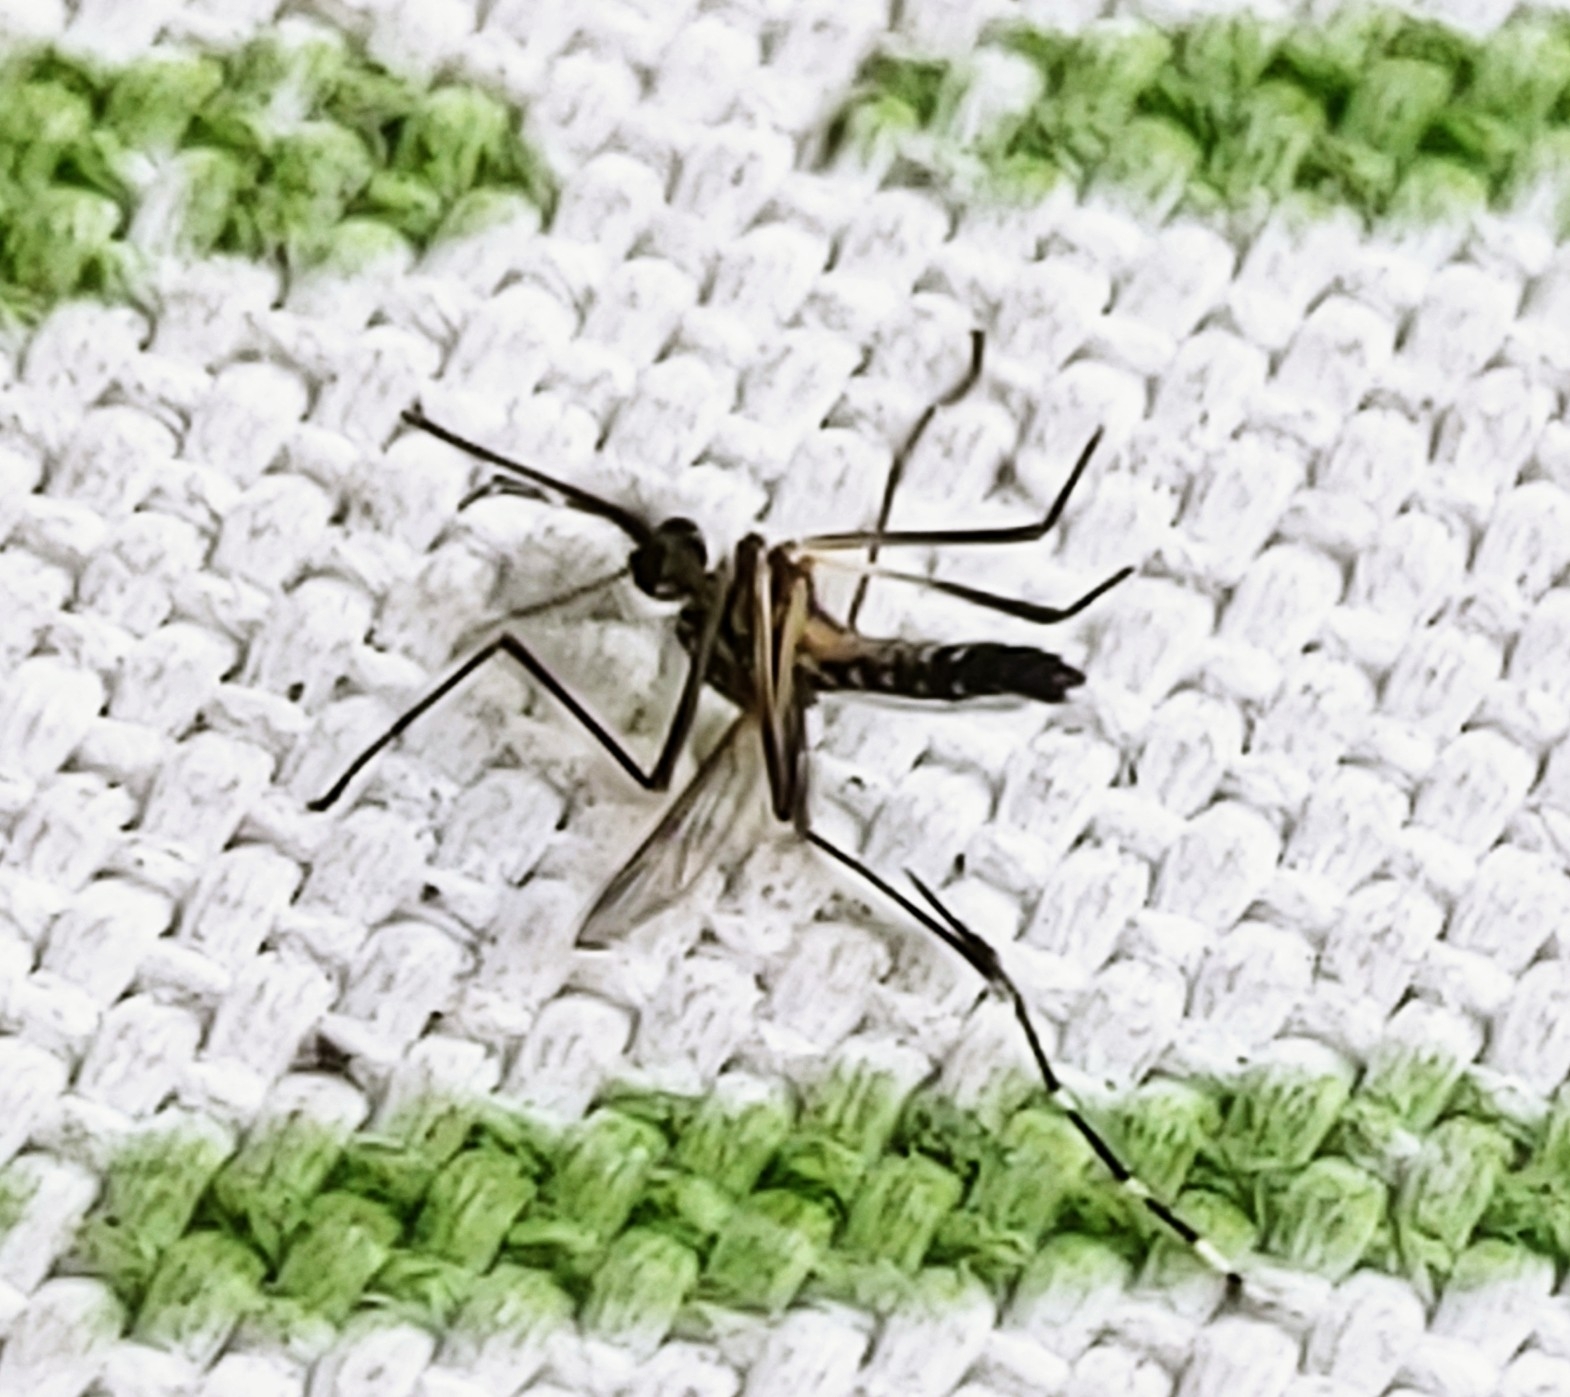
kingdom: Animalia
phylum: Arthropoda
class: Insecta
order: Diptera
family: Culicidae
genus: Aedes
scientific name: Aedes aegypti
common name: Yellow fever mosquito
